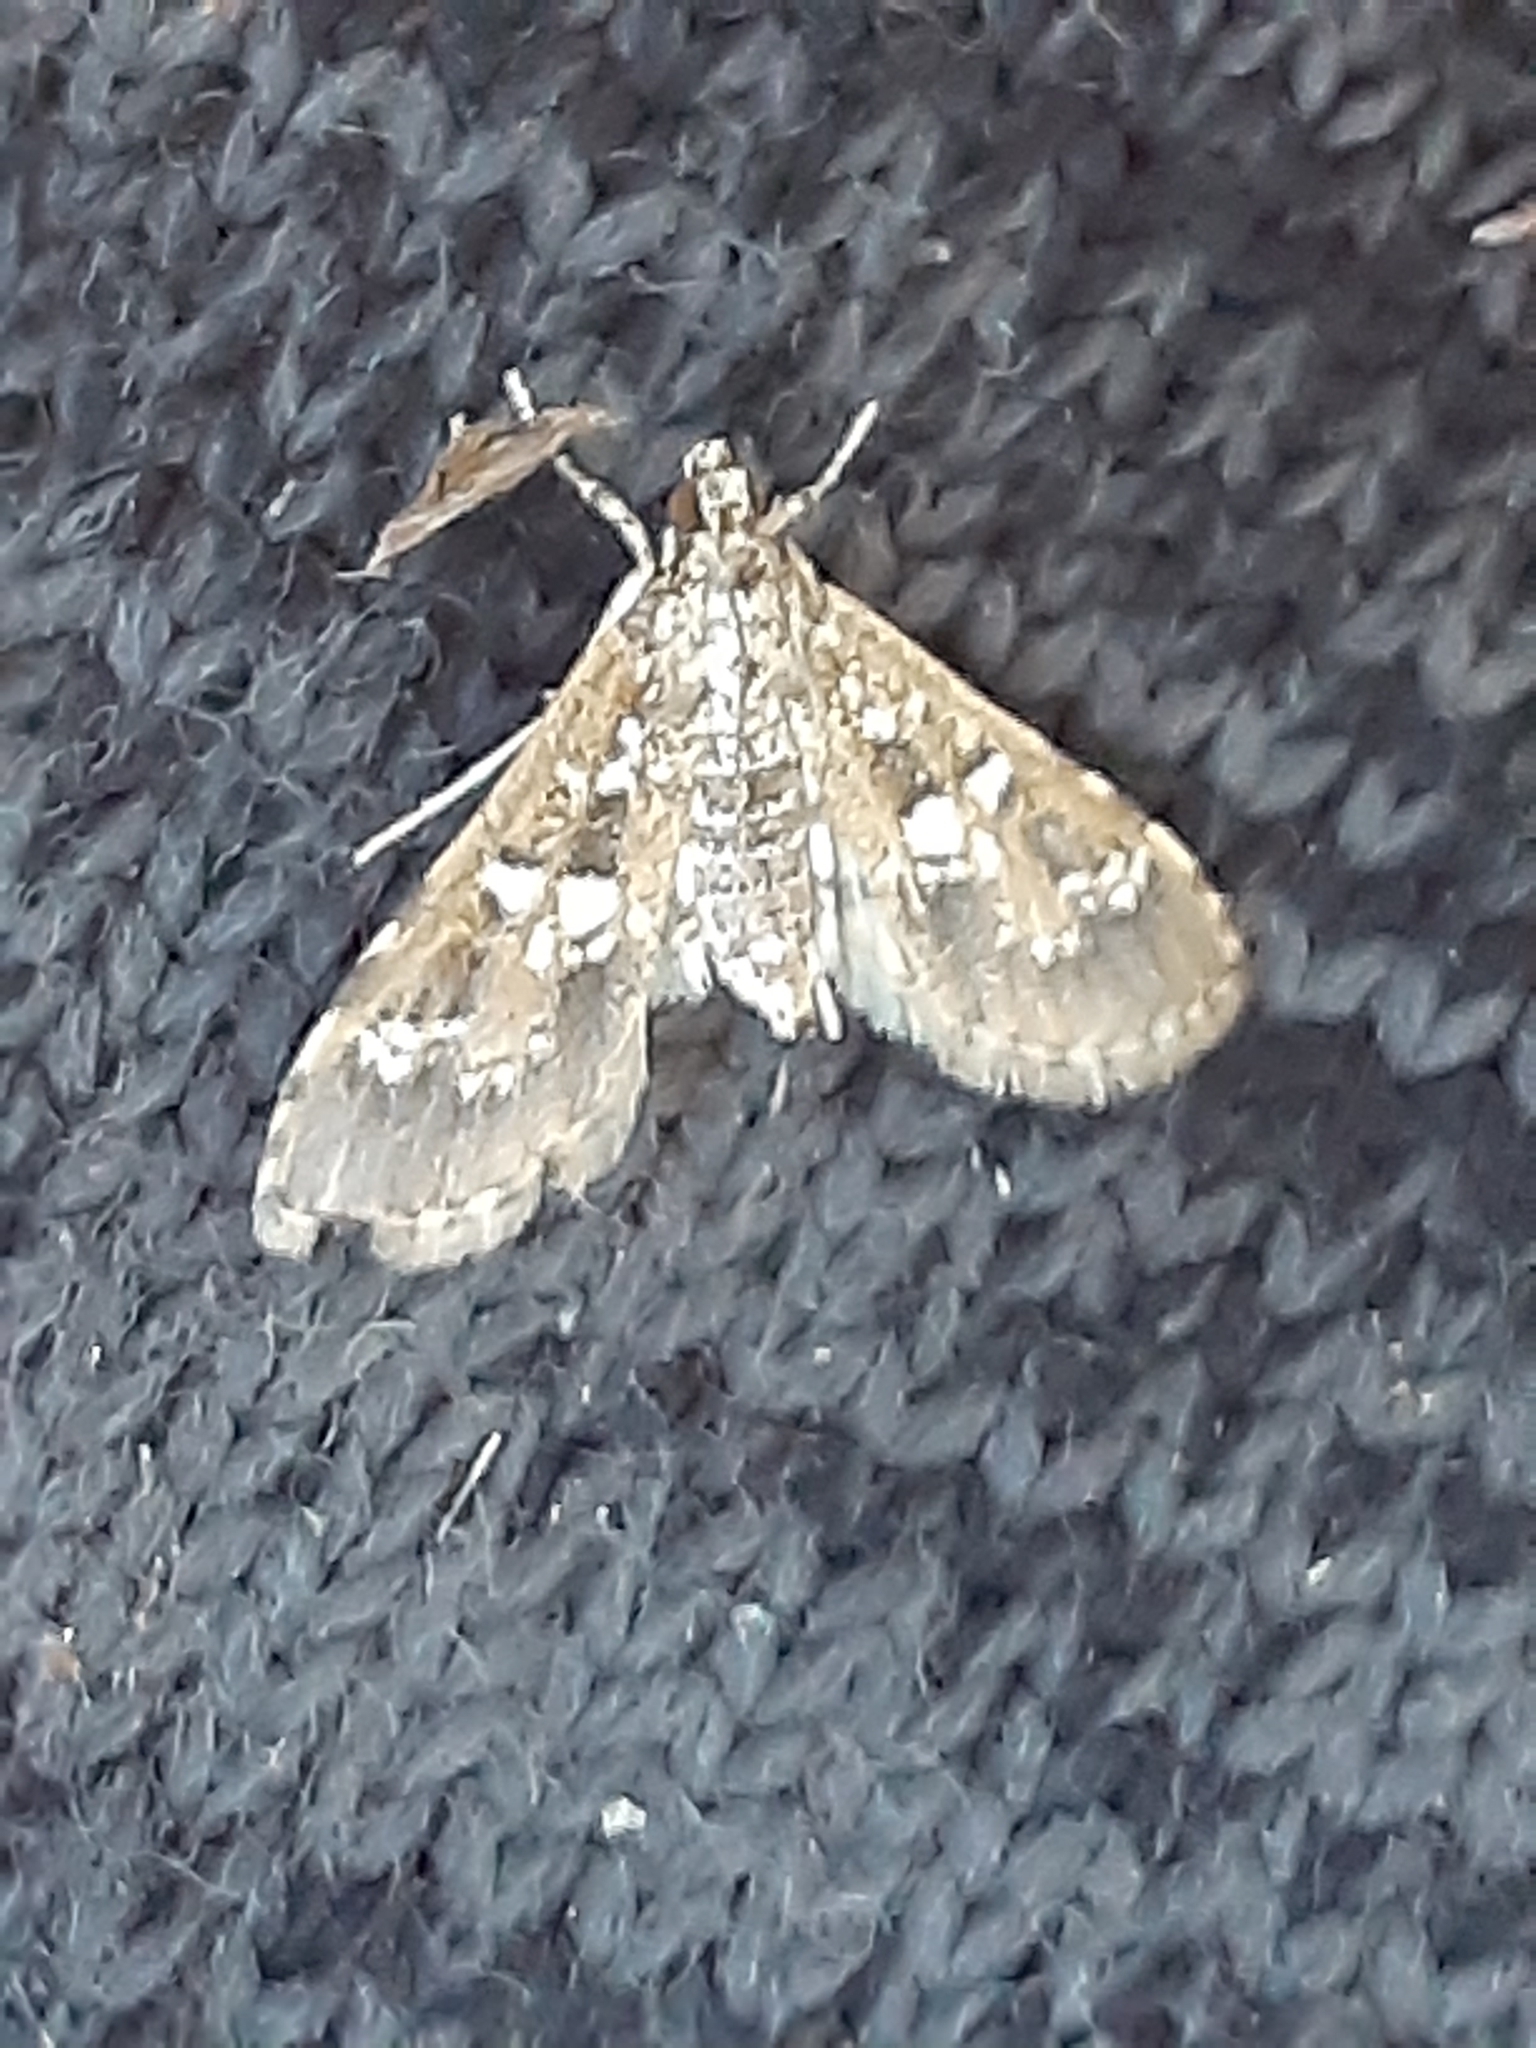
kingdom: Animalia
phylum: Arthropoda
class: Insecta
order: Lepidoptera
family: Crambidae
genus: Samea
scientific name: Samea multiplicalis
